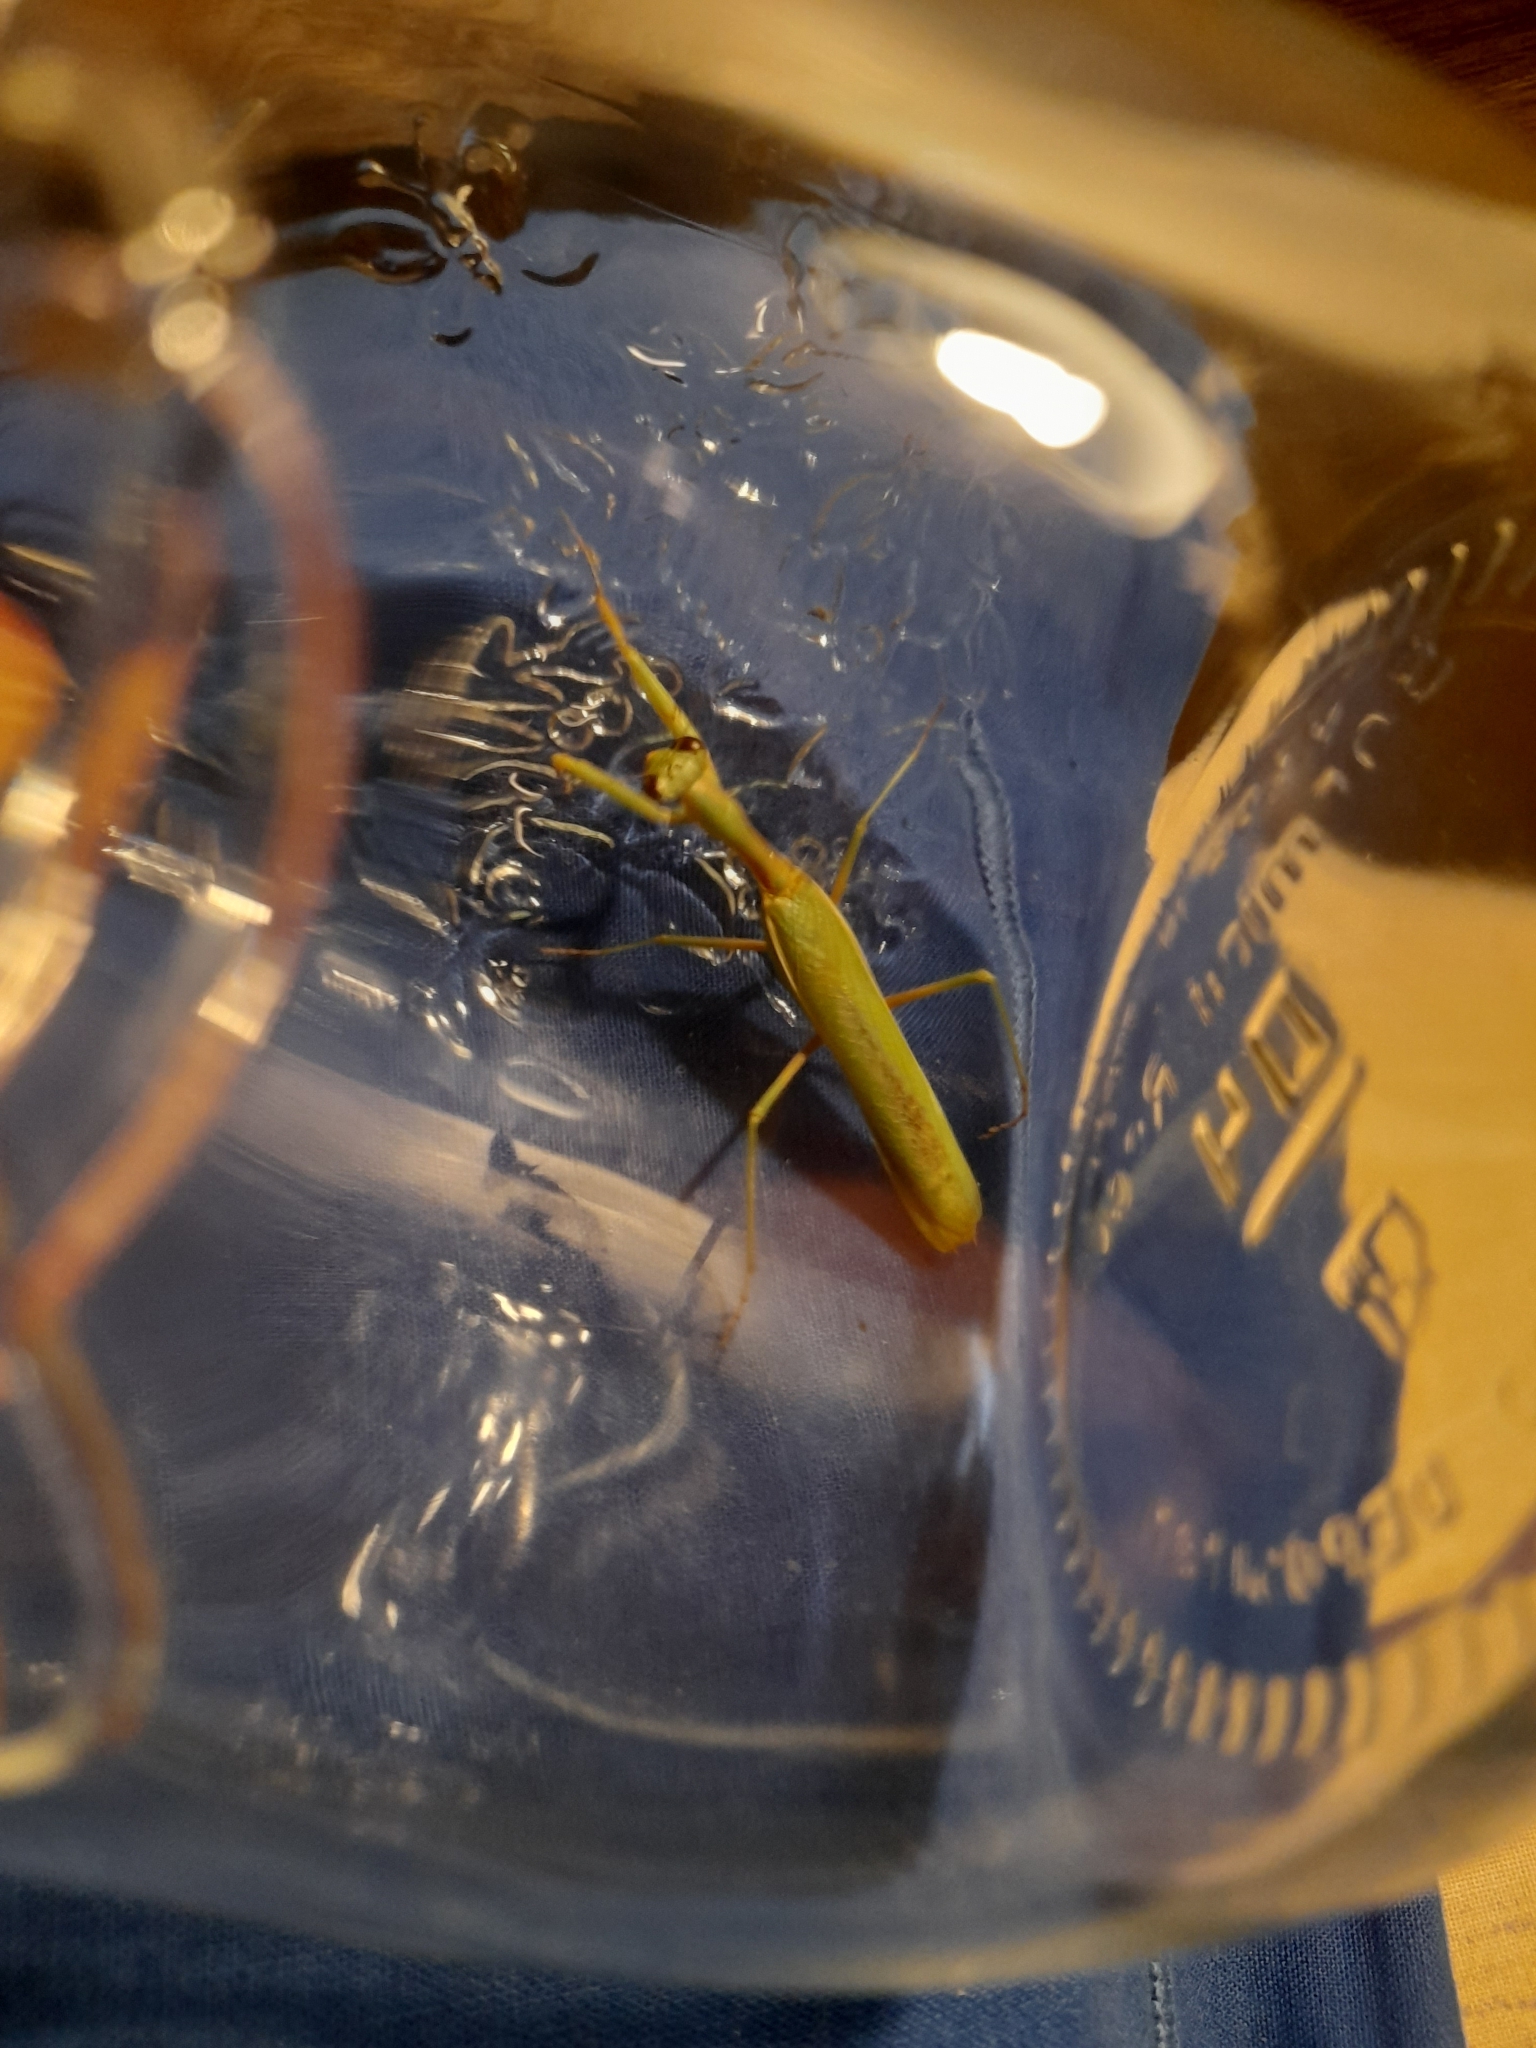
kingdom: Animalia
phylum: Arthropoda
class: Insecta
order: Mantodea
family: Eremiaphilidae
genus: Iris
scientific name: Iris oratoria
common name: Mediterranean mantis
